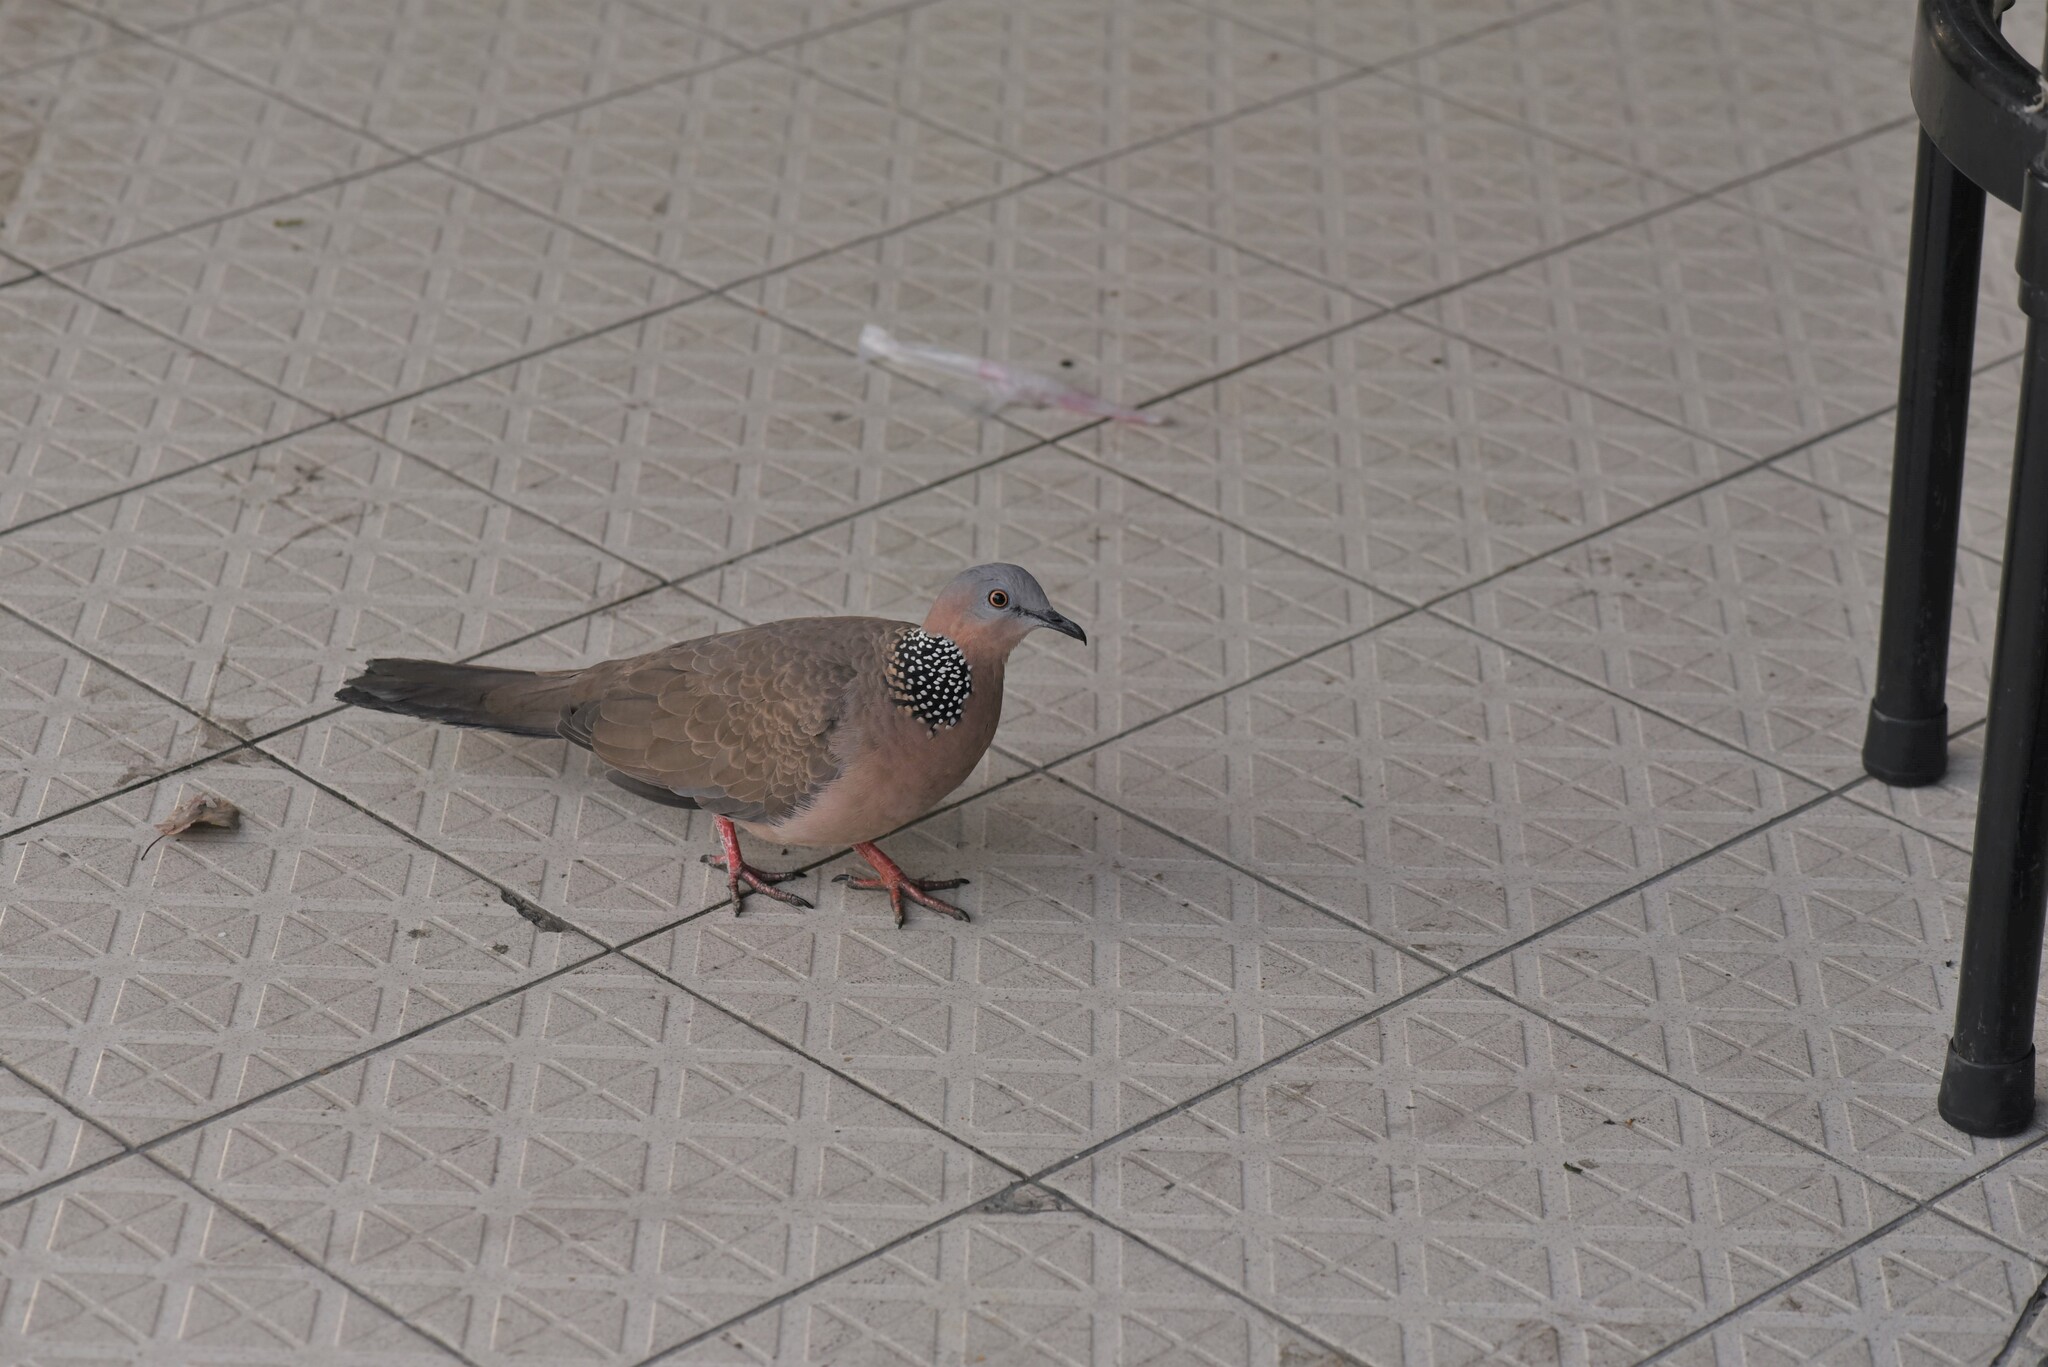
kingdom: Animalia
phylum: Chordata
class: Aves
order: Columbiformes
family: Columbidae
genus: Spilopelia
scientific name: Spilopelia chinensis
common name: Spotted dove
